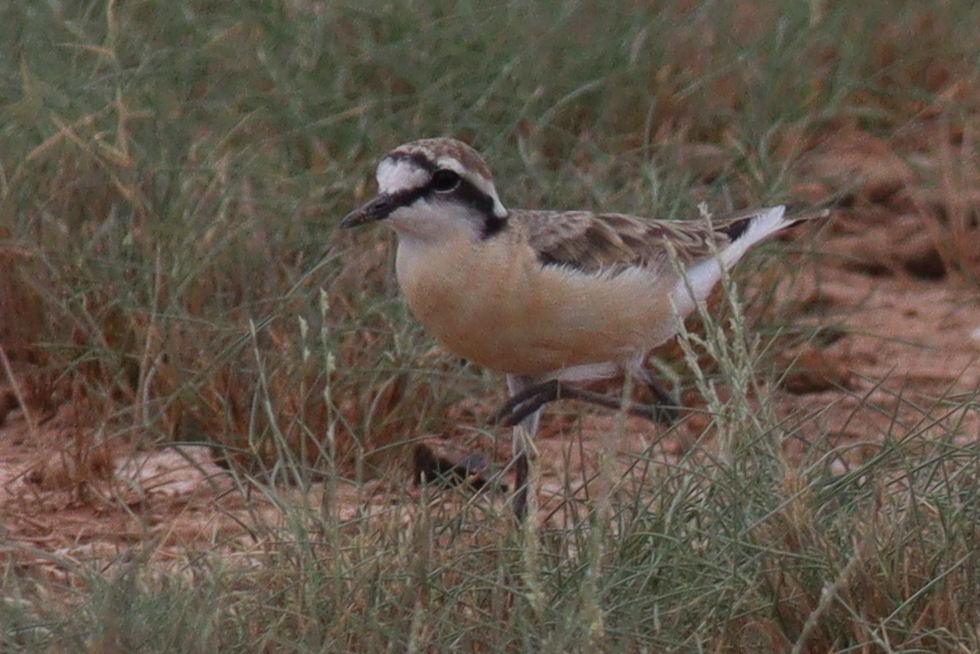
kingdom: Animalia
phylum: Chordata
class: Aves
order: Charadriiformes
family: Charadriidae
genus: Anarhynchus
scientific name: Anarhynchus
